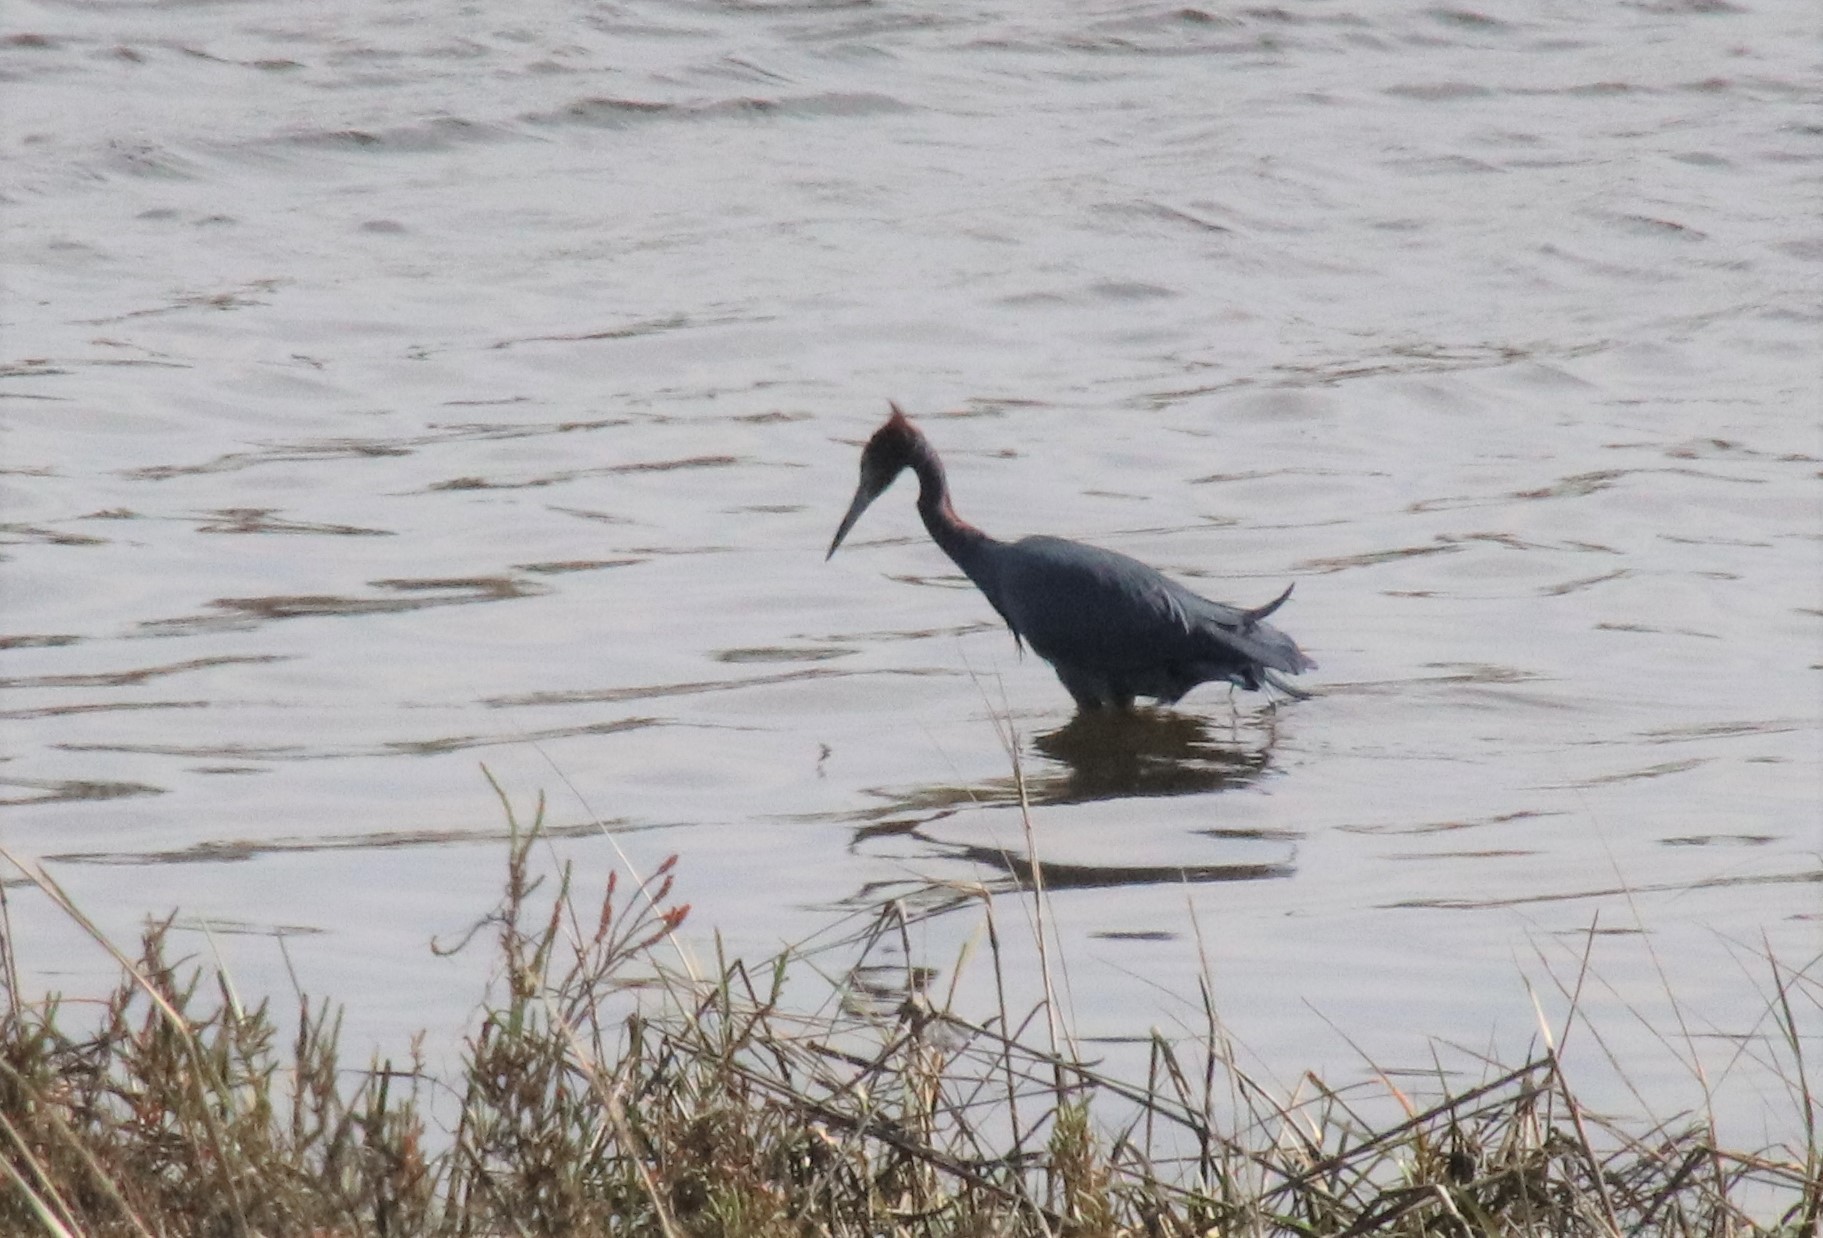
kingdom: Animalia
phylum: Chordata
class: Aves
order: Pelecaniformes
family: Ardeidae
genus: Egretta
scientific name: Egretta caerulea
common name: Little blue heron
